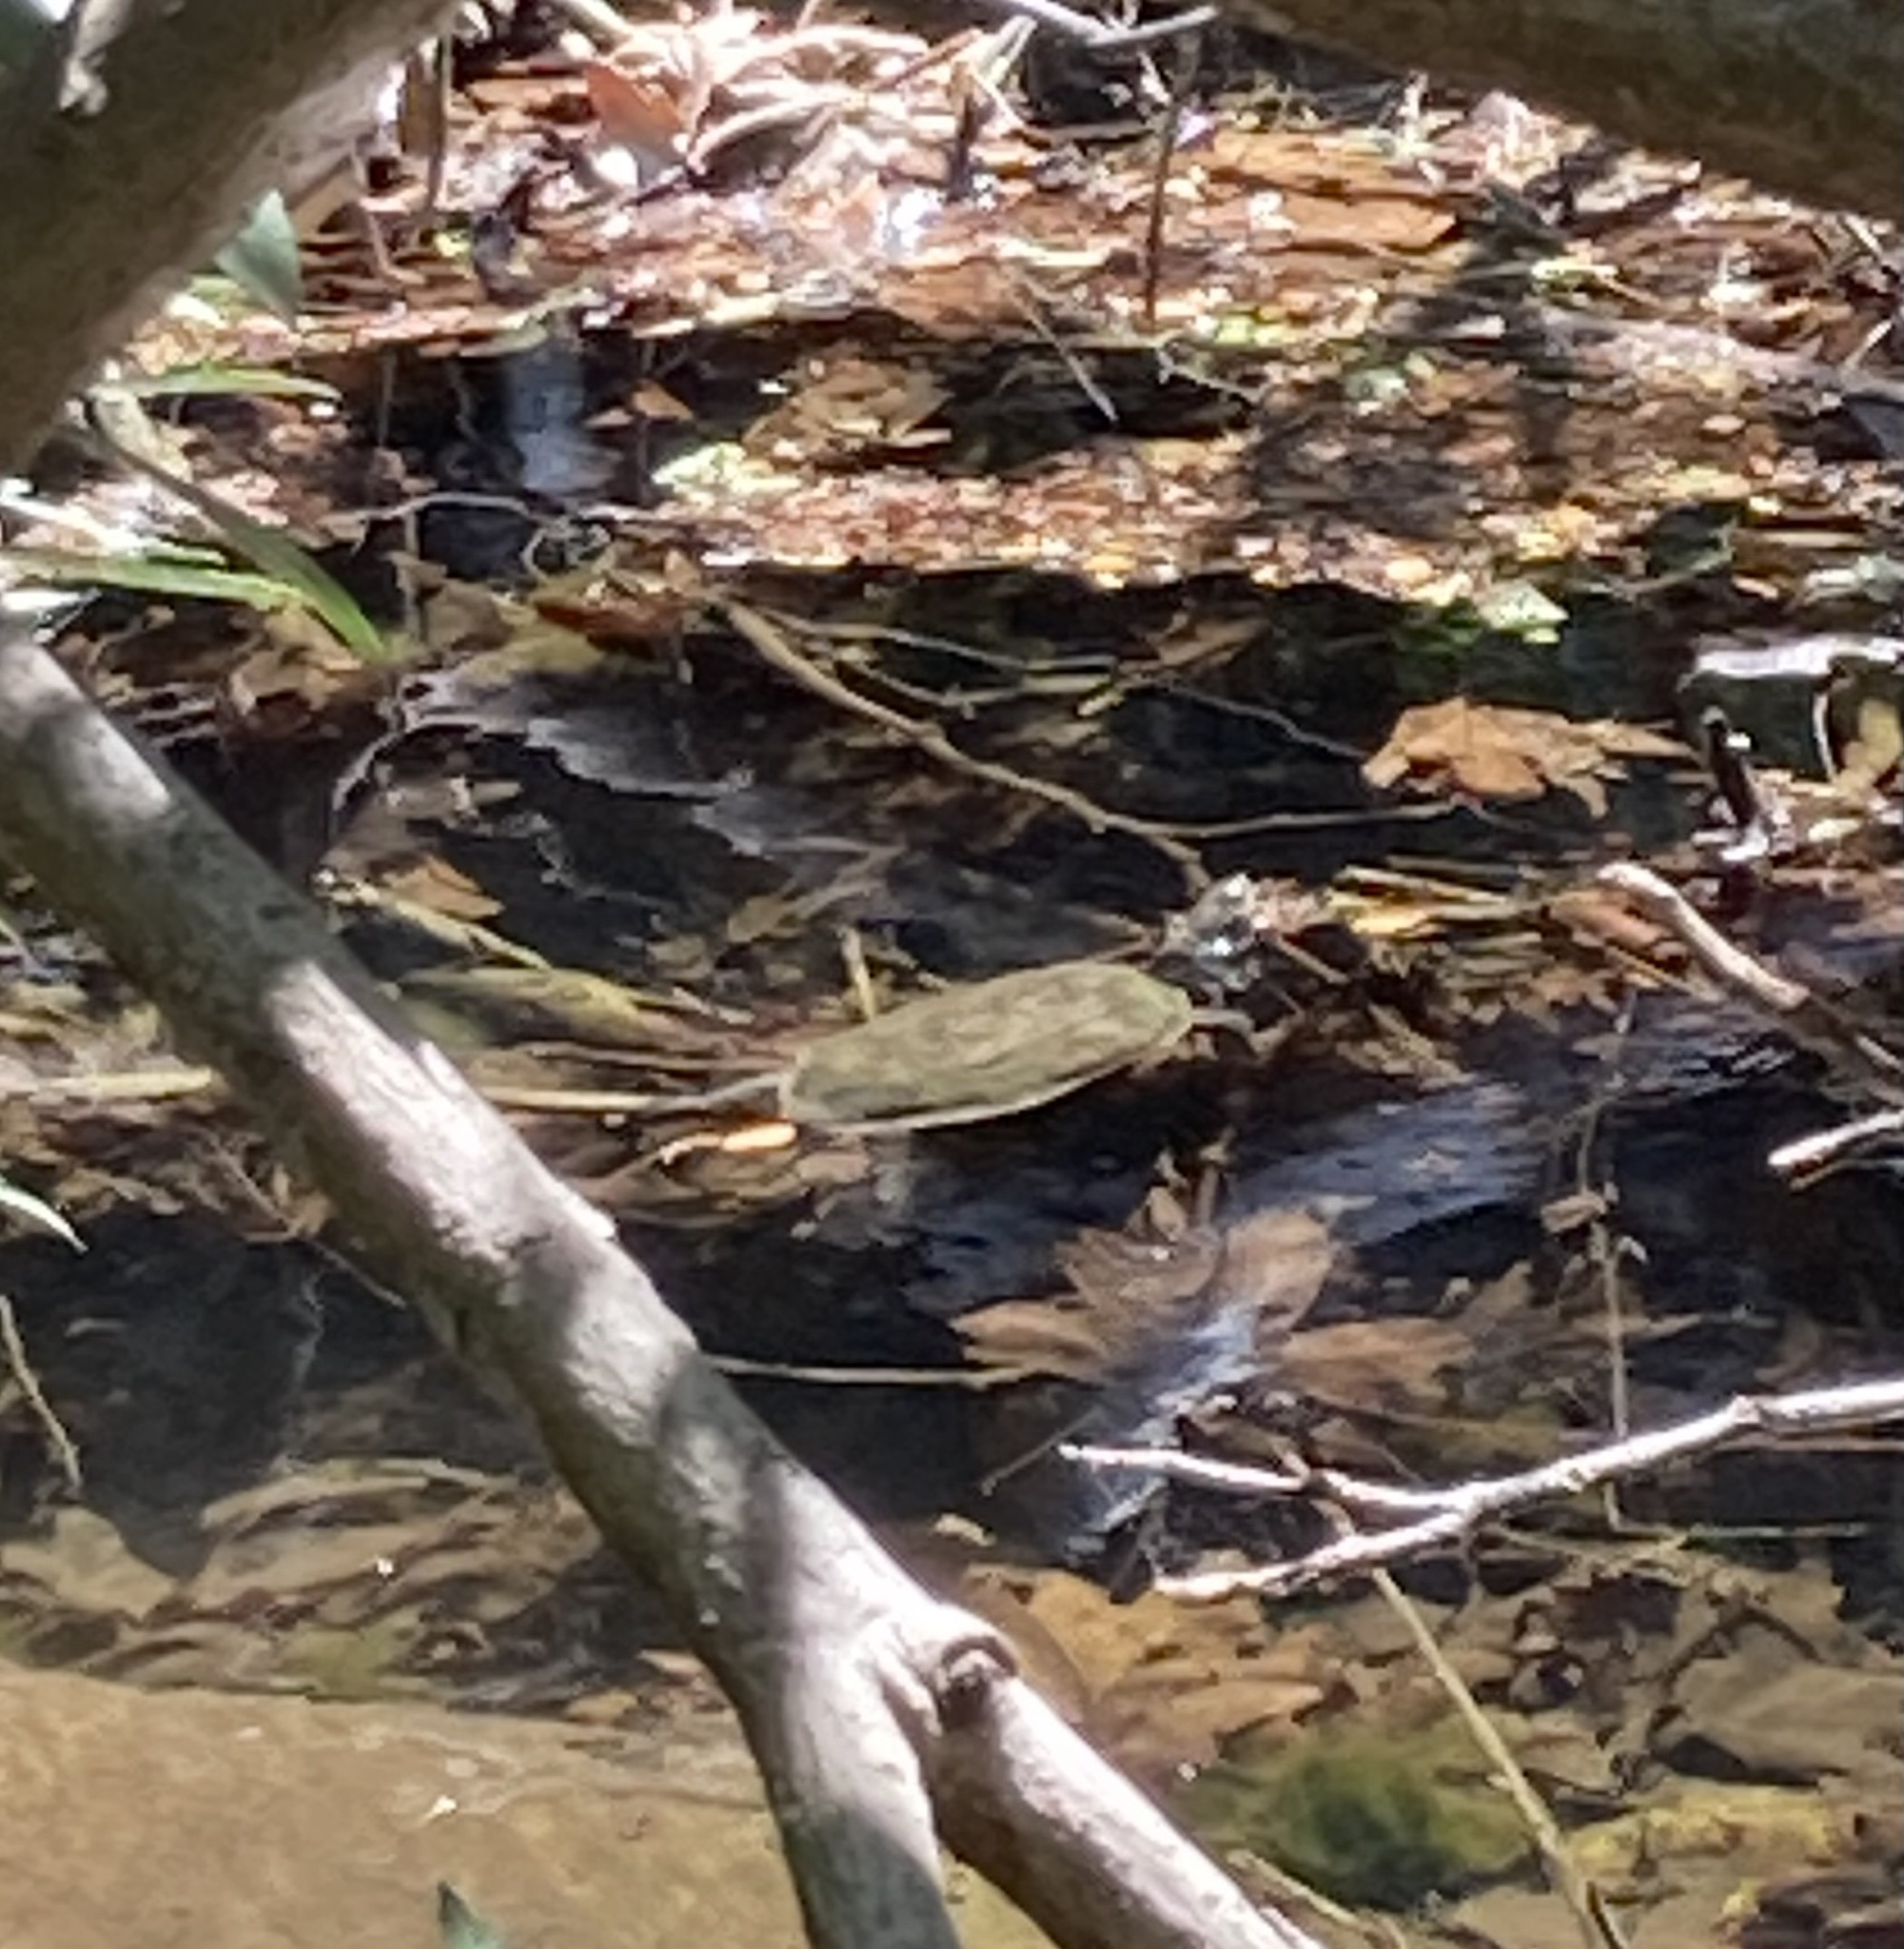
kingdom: Animalia
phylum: Chordata
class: Testudines
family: Geoemydidae
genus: Mauremys
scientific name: Mauremys rivulata
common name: Western caspian turtle
